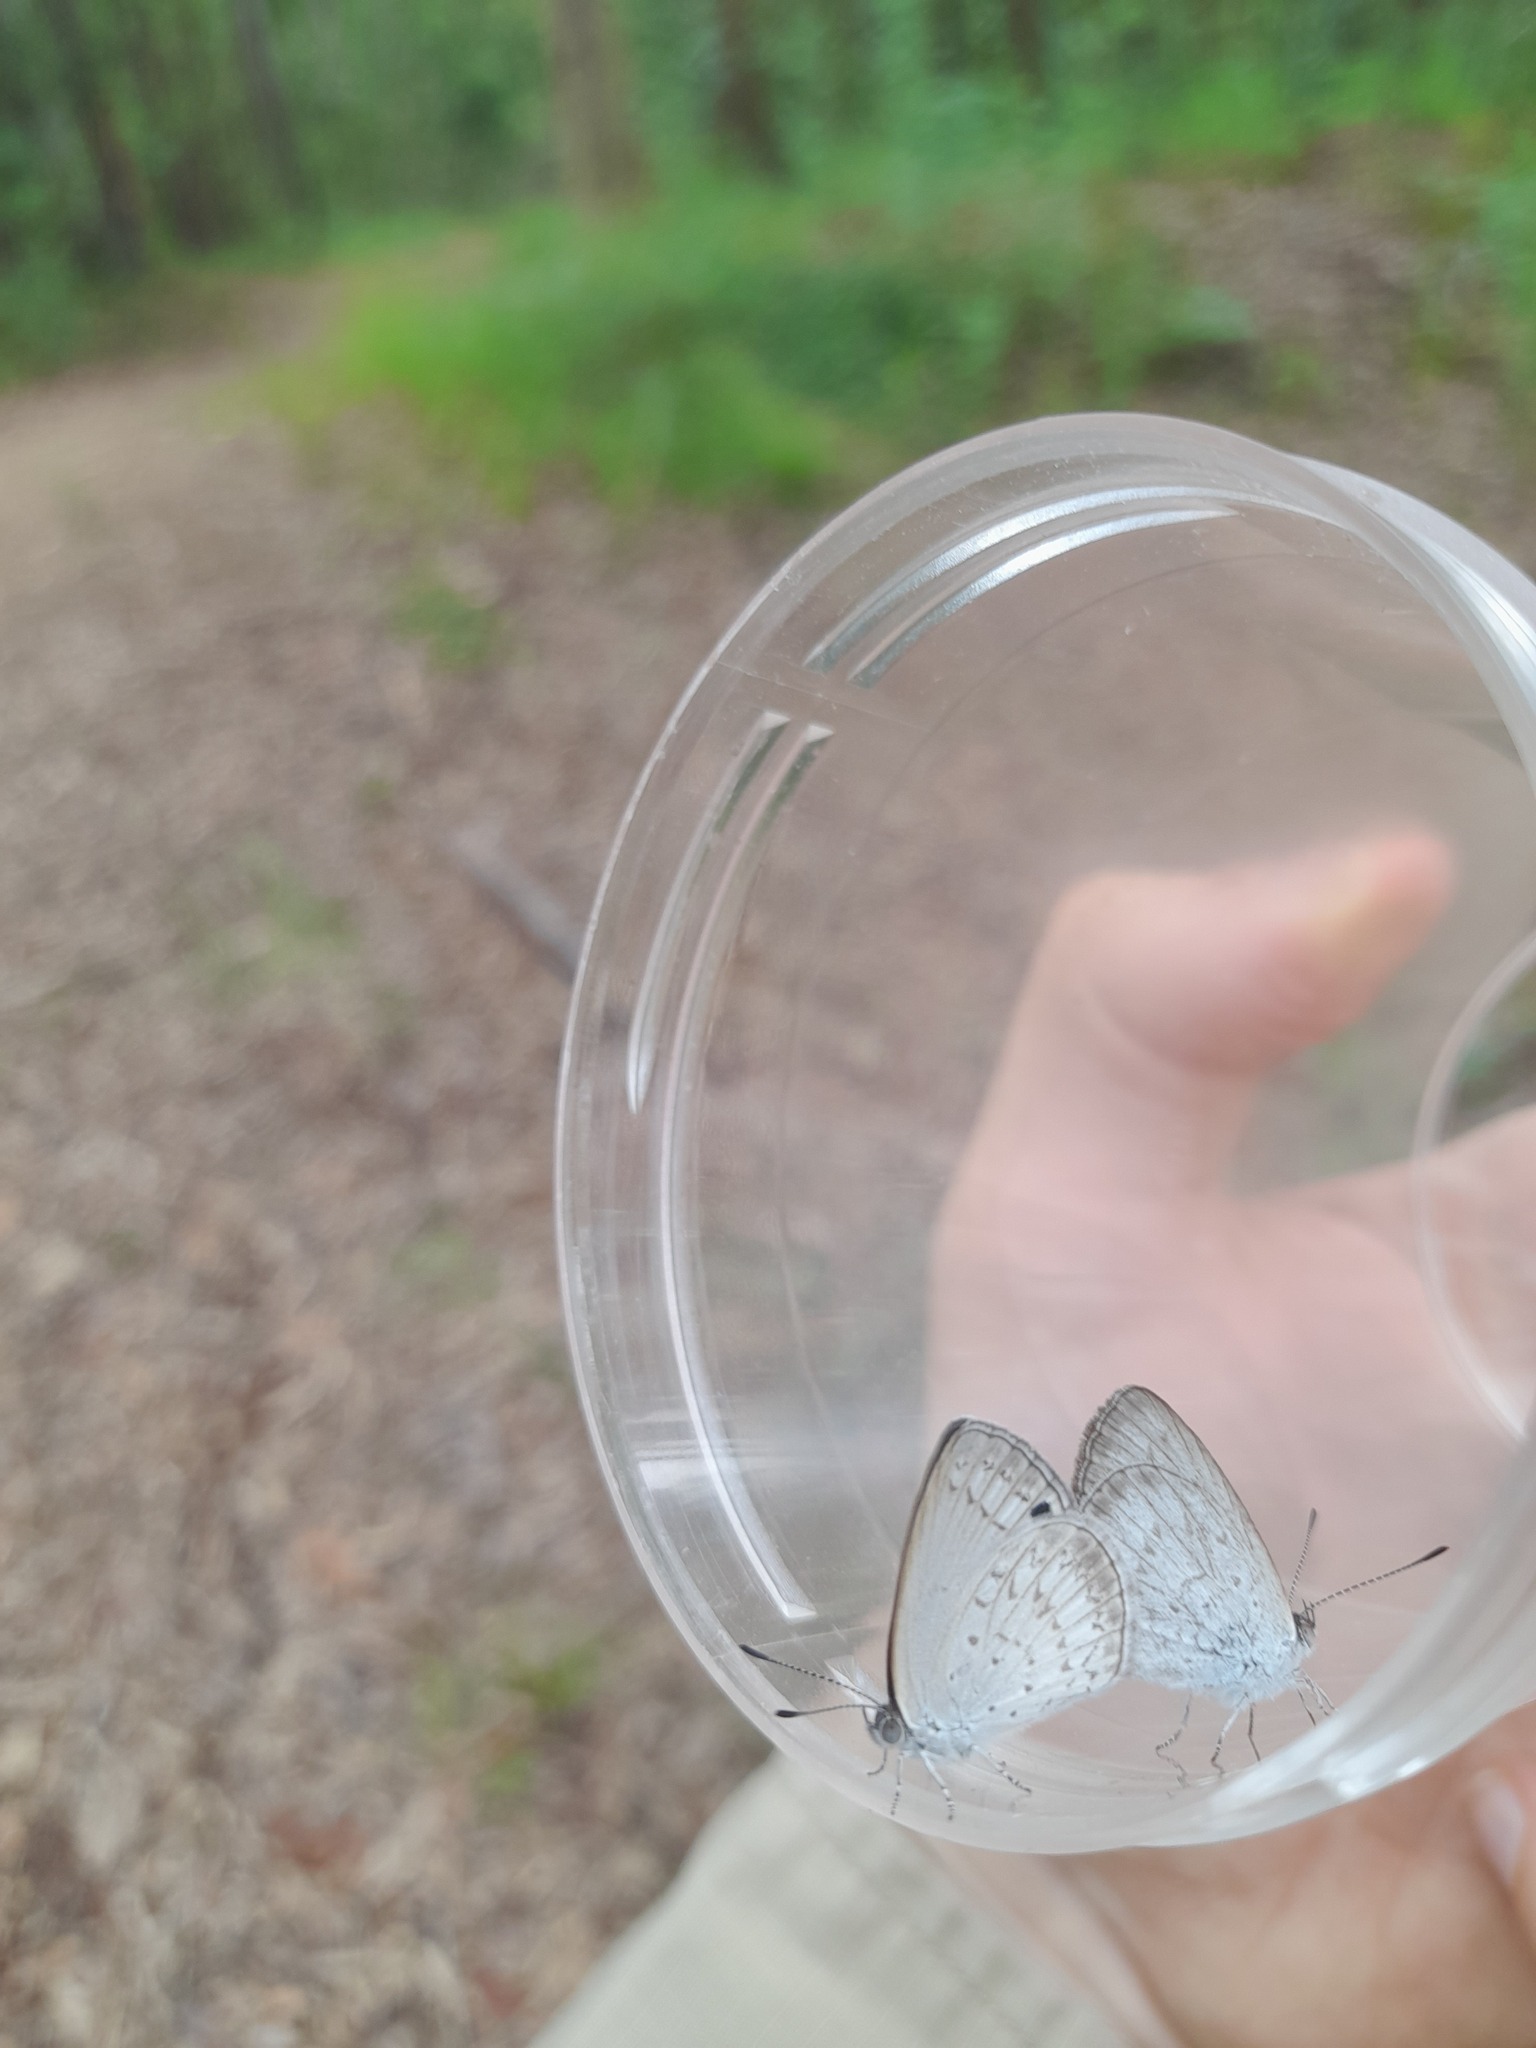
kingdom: Animalia
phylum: Arthropoda
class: Insecta
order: Lepidoptera
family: Lycaenidae
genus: Candalides
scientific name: Candalides
